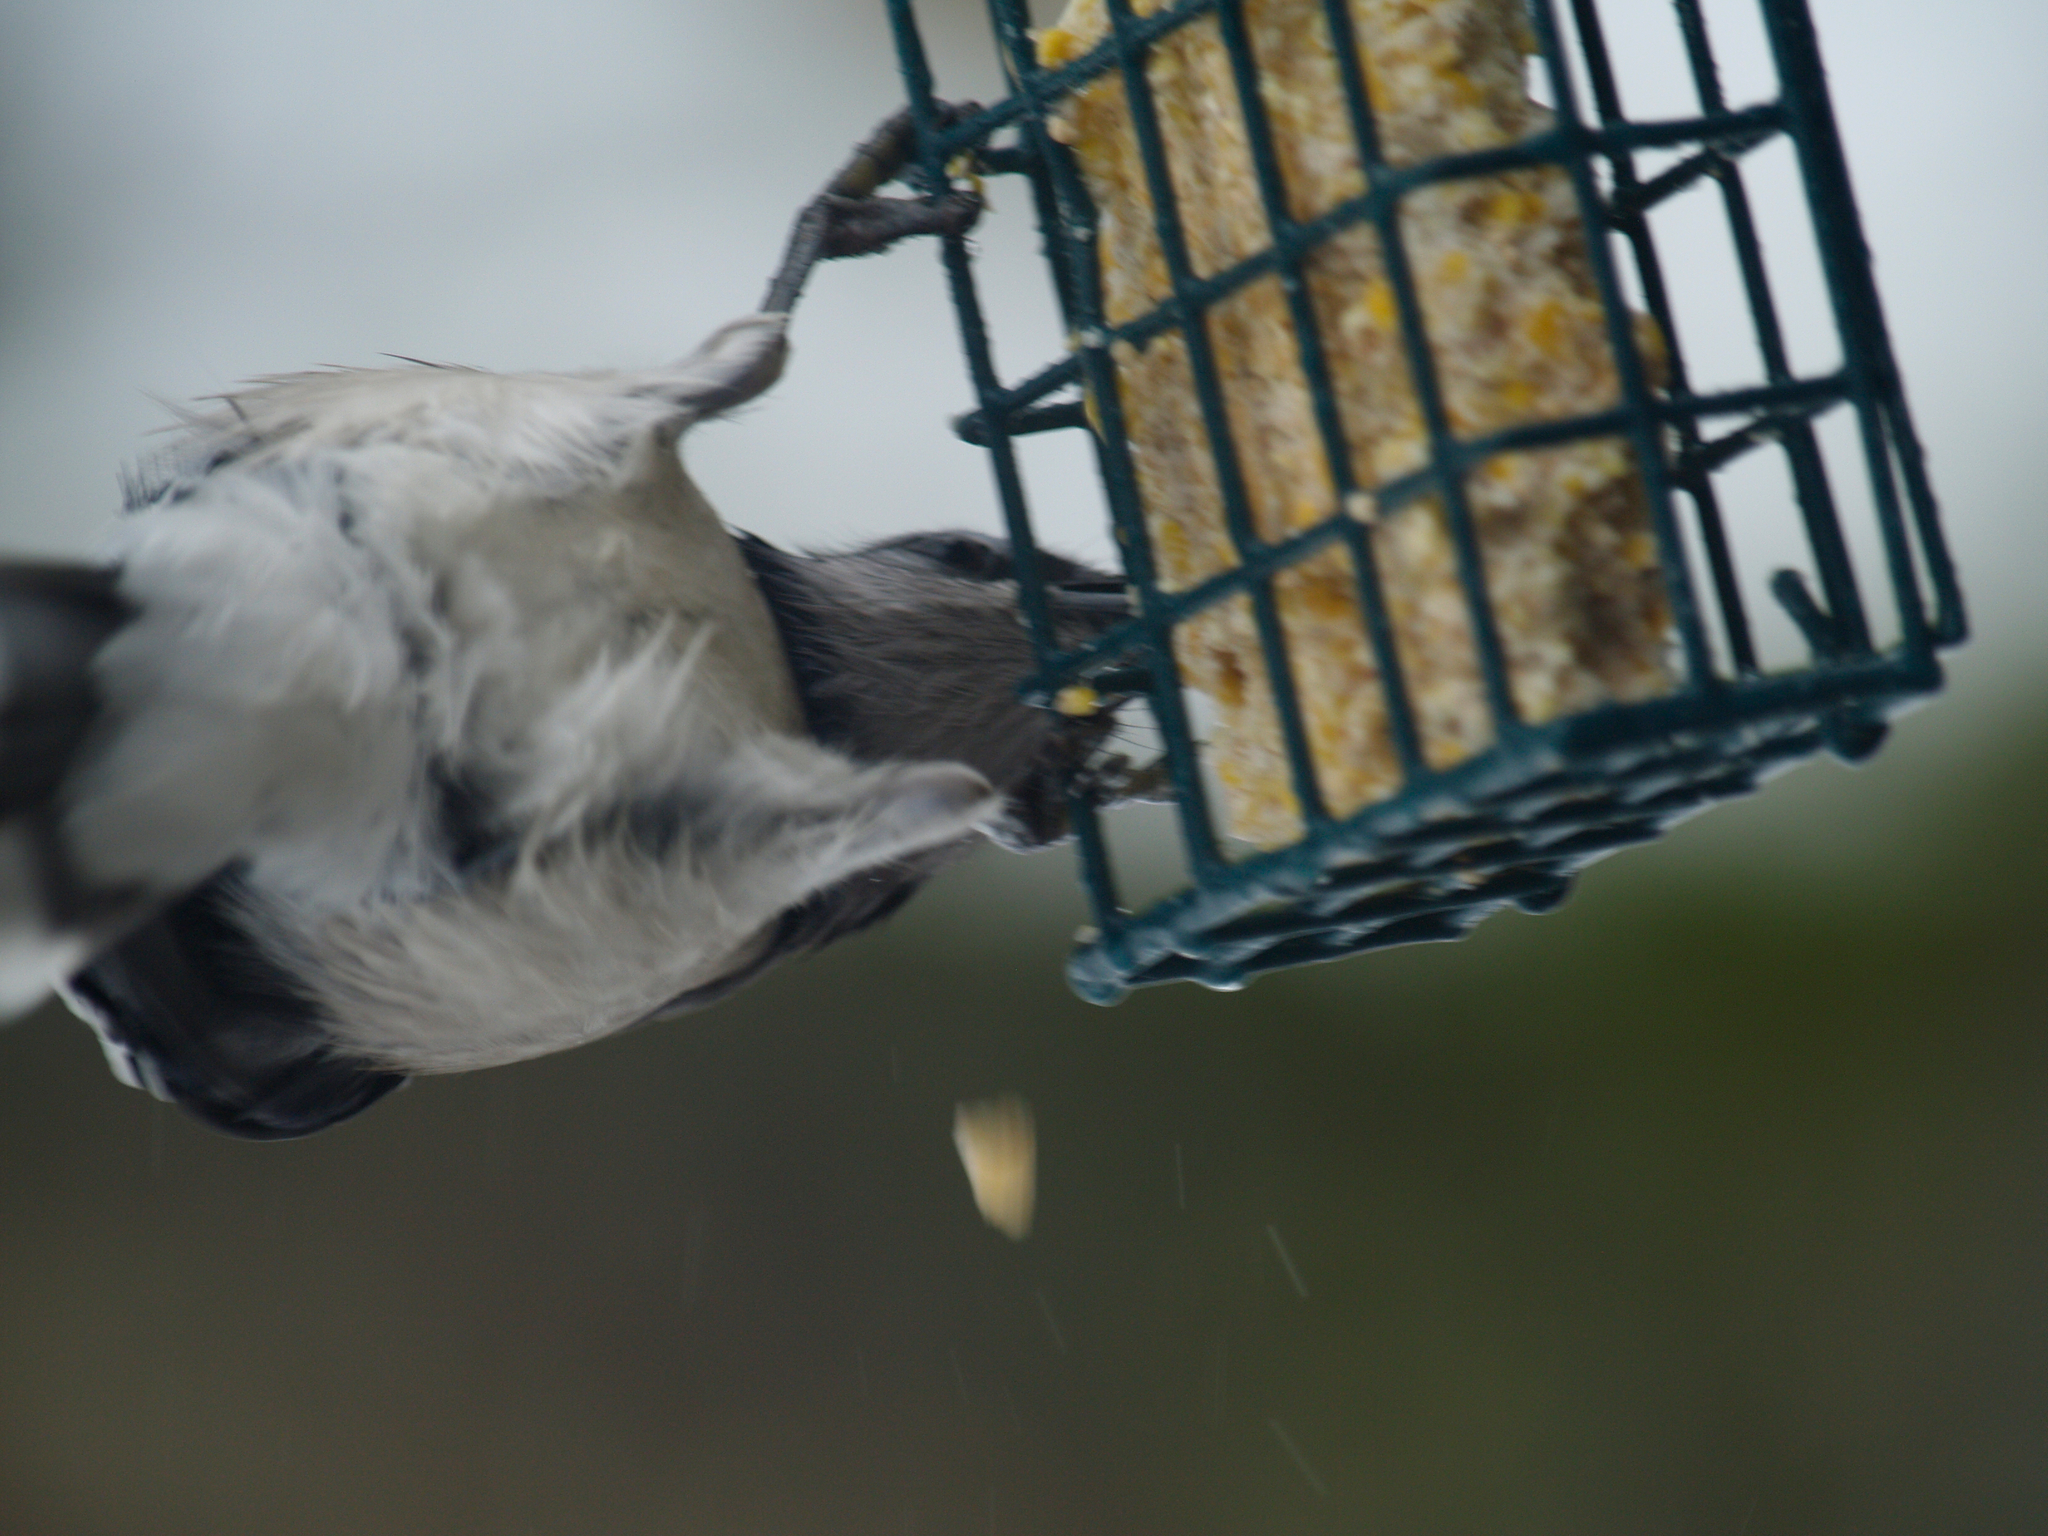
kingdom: Animalia
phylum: Chordata
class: Aves
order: Passeriformes
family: Corvidae
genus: Cyanocitta
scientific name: Cyanocitta cristata
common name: Blue jay
